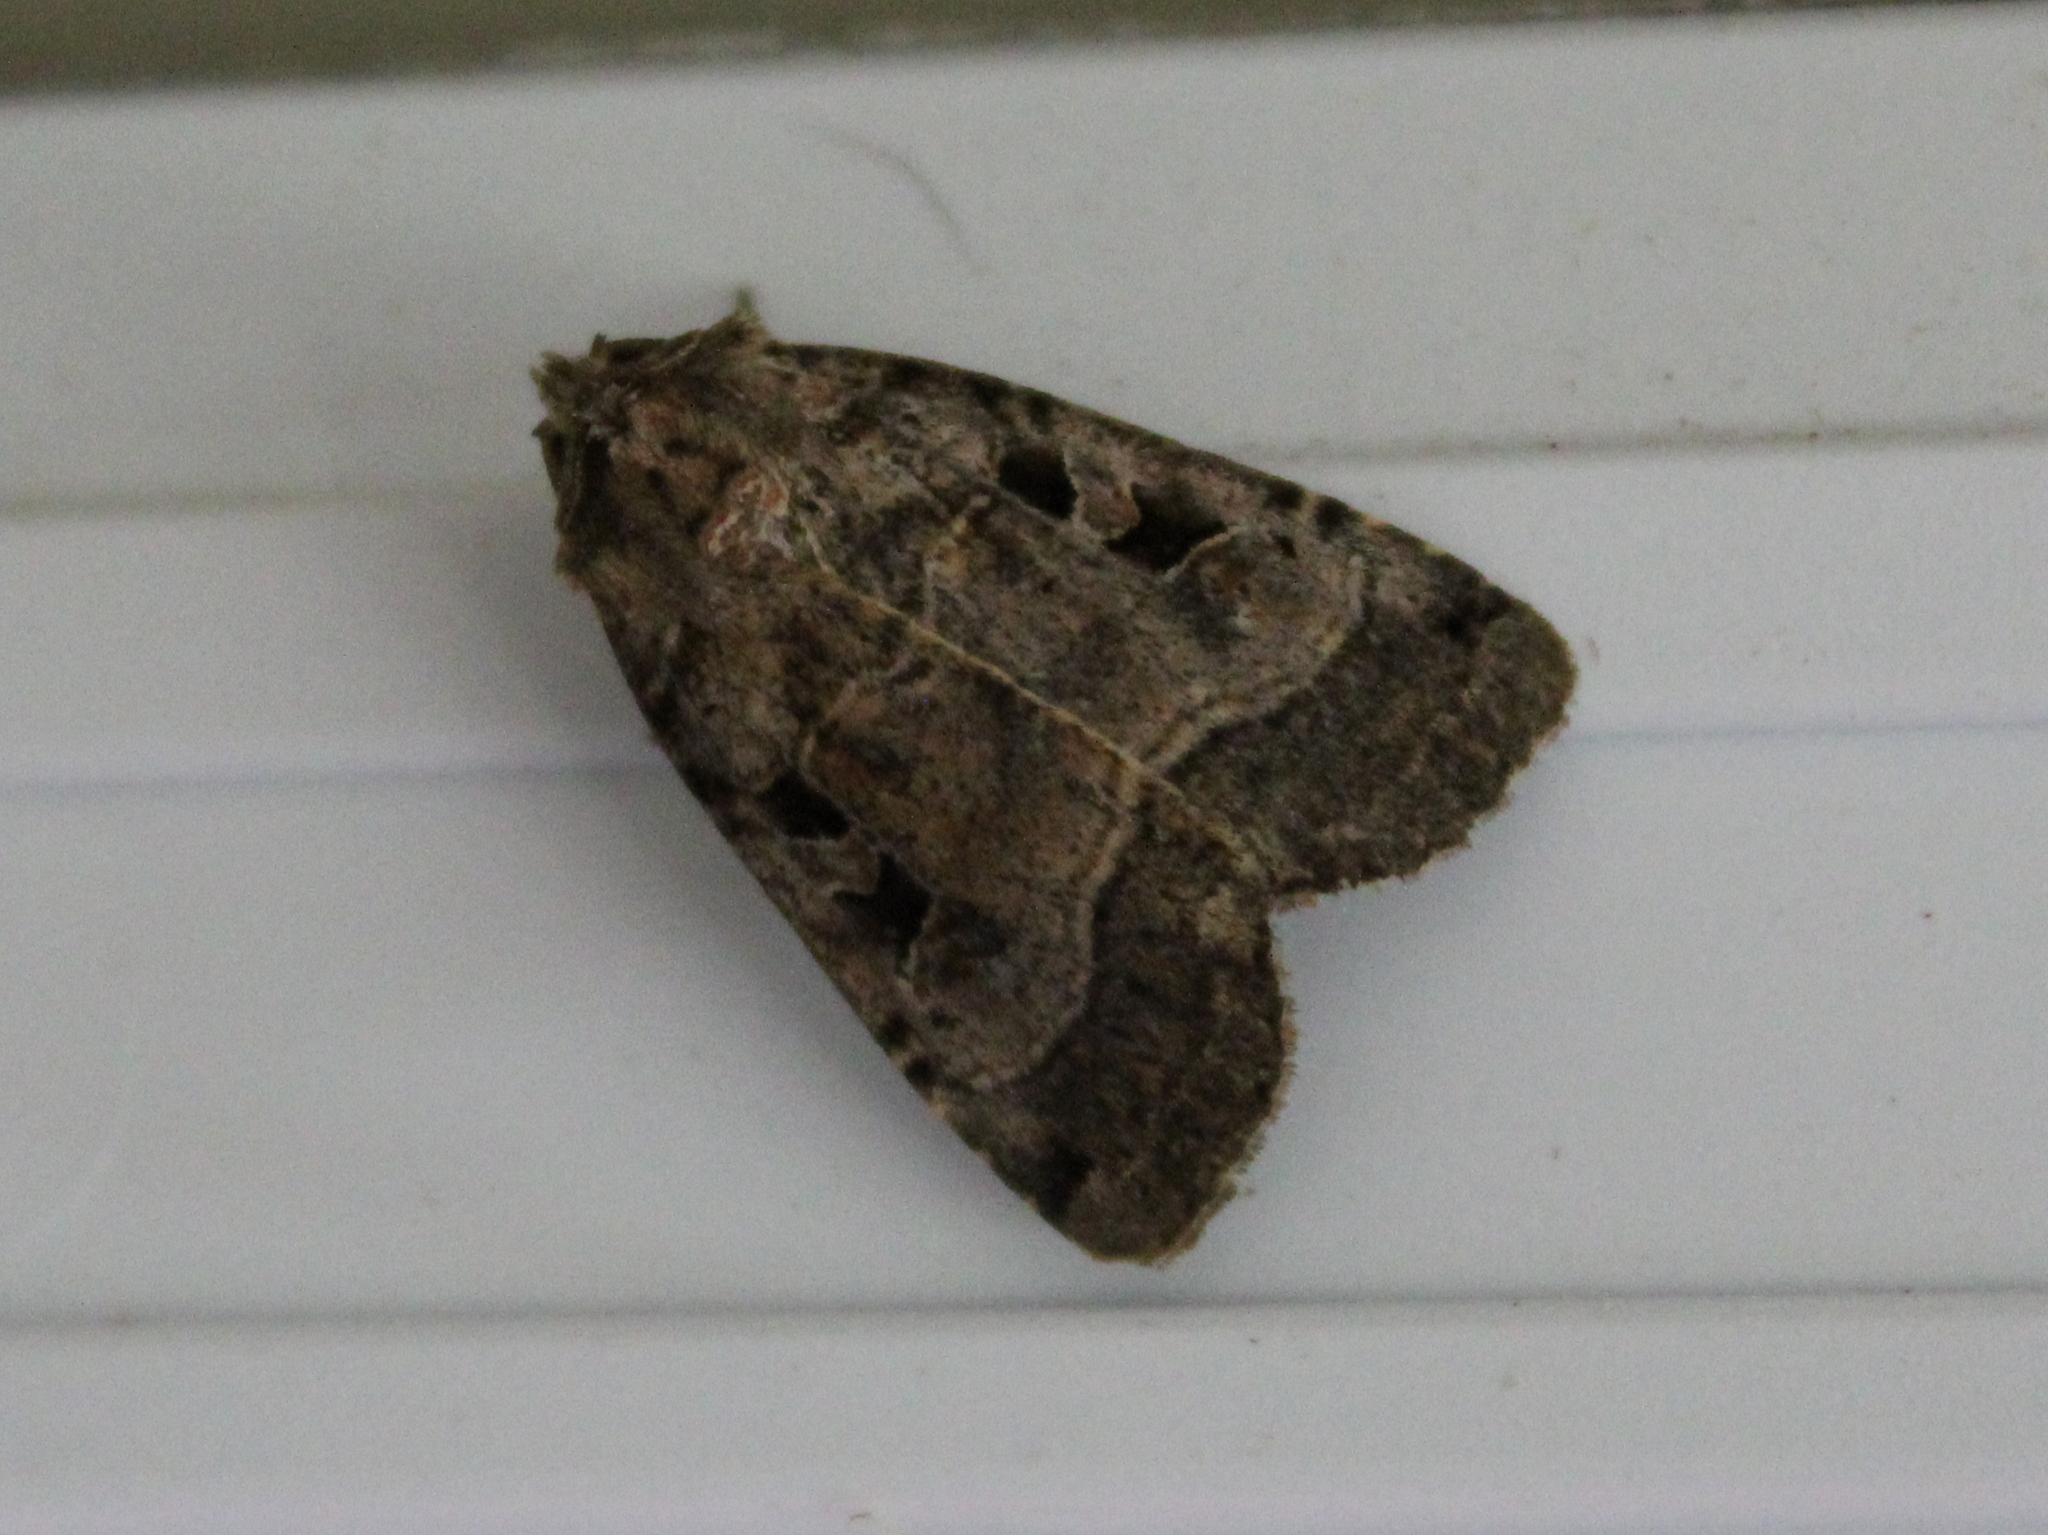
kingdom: Animalia
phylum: Arthropoda
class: Insecta
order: Lepidoptera
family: Noctuidae
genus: Xestia
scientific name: Xestia normaniana
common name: Norman's dart moth
